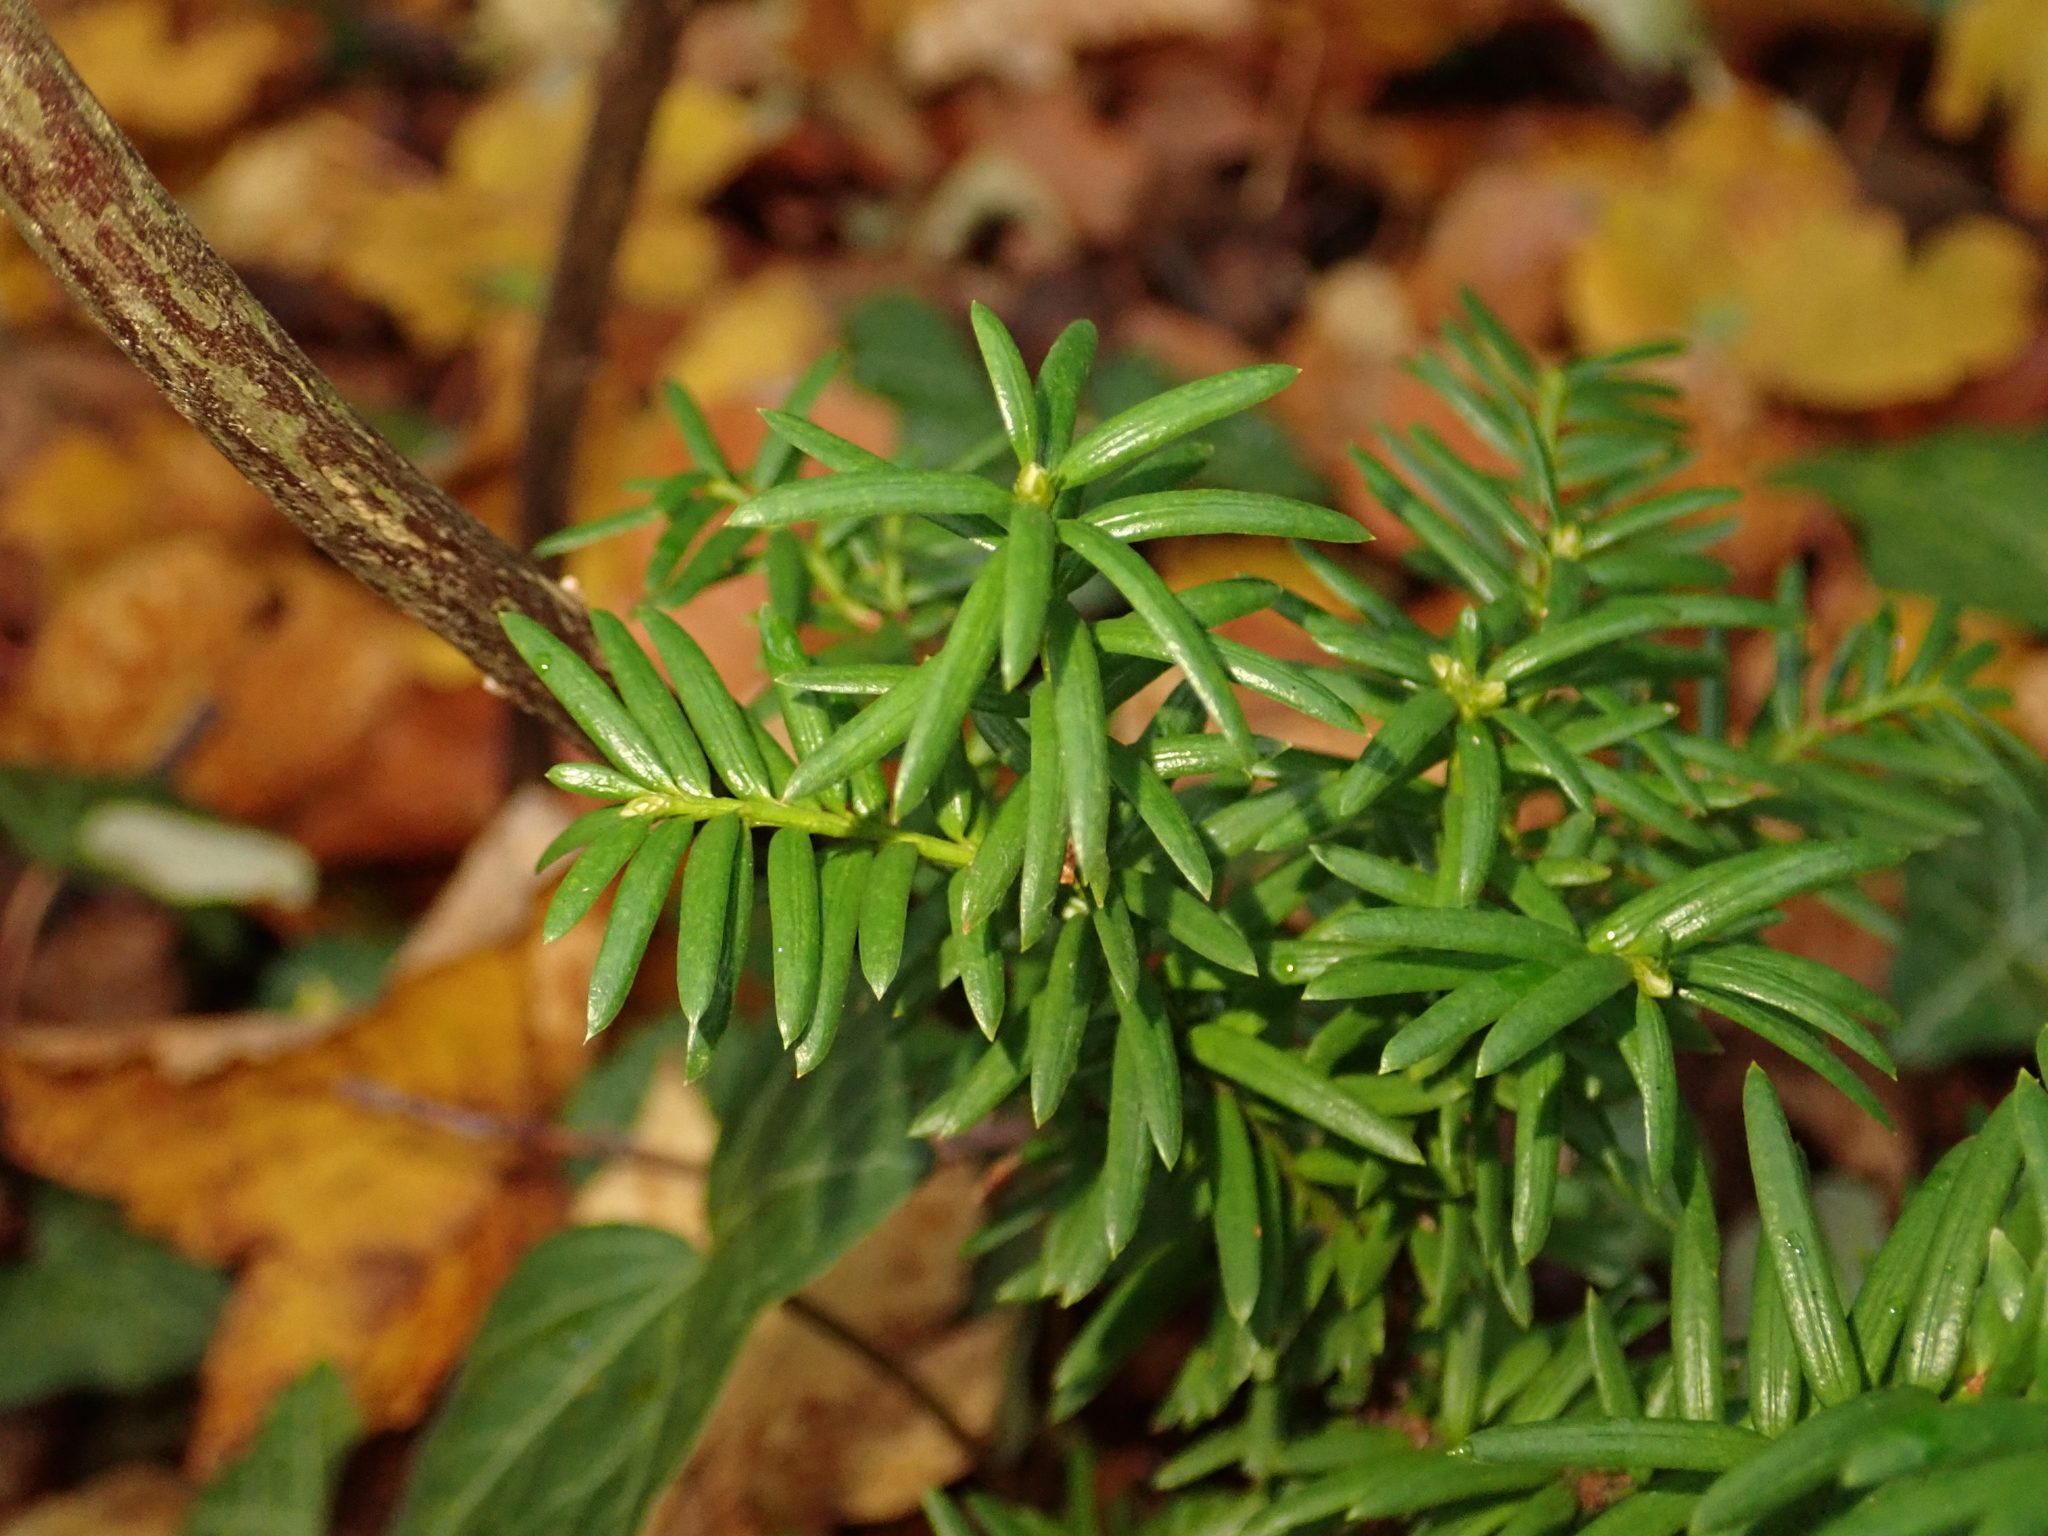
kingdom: Plantae
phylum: Tracheophyta
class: Pinopsida
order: Pinales
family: Taxaceae
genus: Taxus
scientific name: Taxus baccata
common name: Yew
